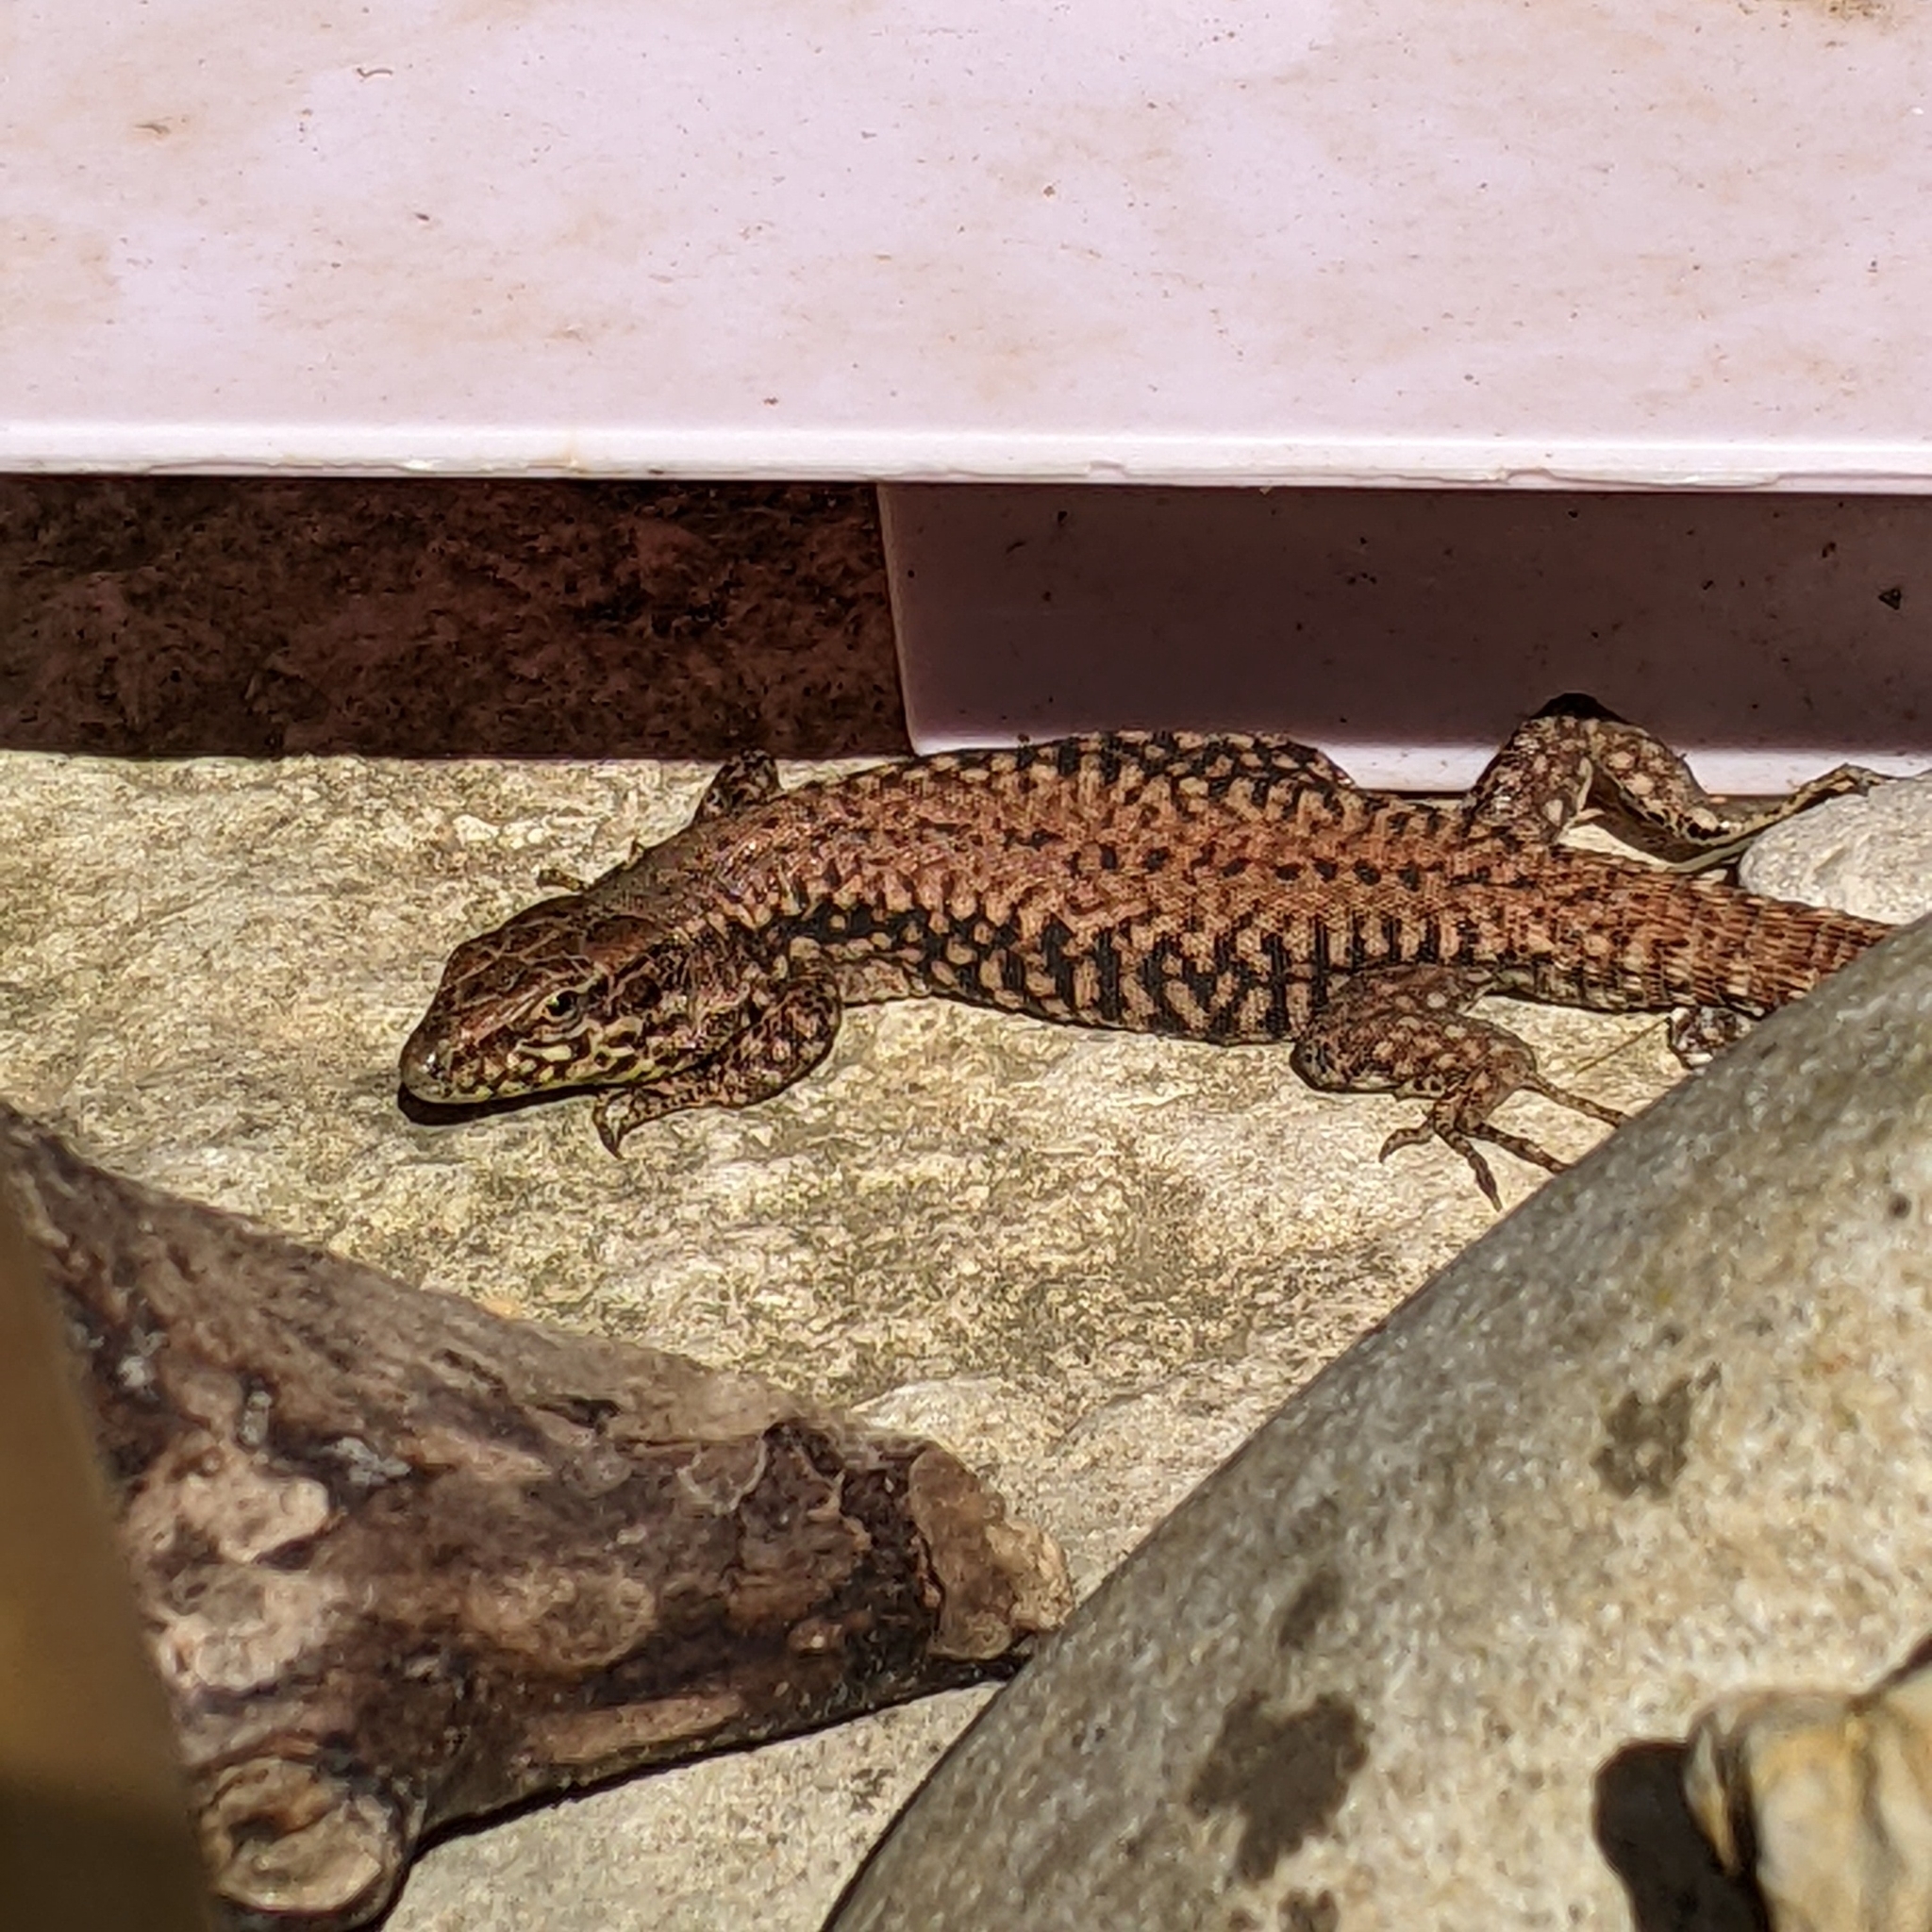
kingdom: Animalia
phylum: Chordata
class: Squamata
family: Lacertidae
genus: Podarcis
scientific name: Podarcis muralis
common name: Common wall lizard
